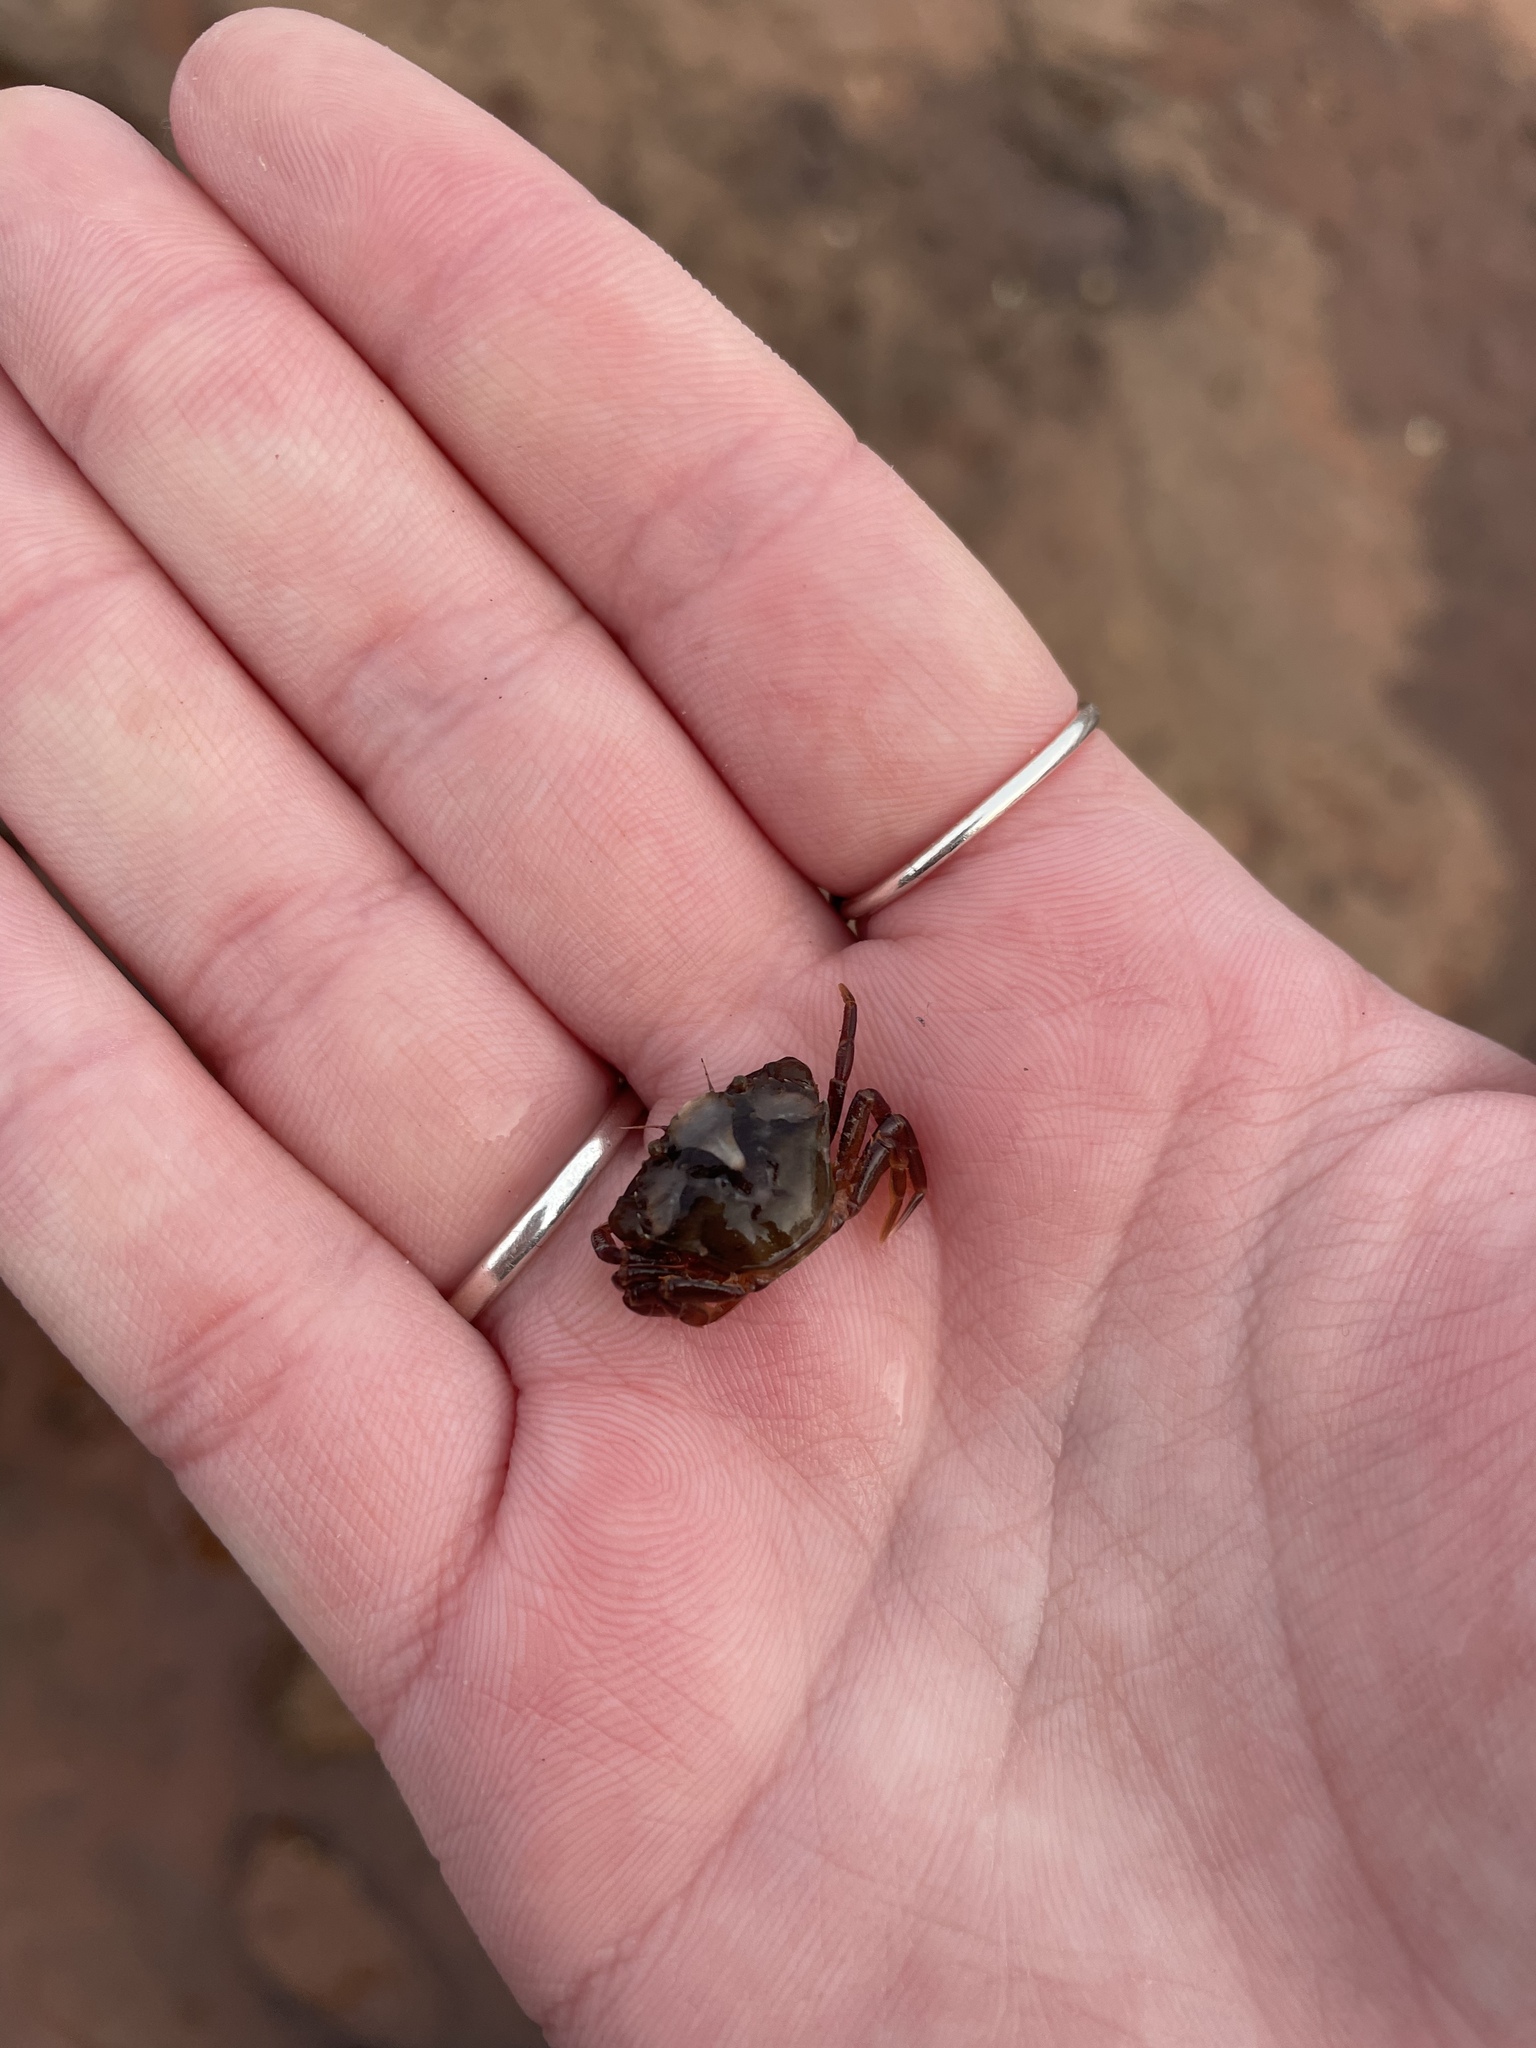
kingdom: Animalia
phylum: Arthropoda
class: Malacostraca
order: Decapoda
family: Carcinidae
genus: Carcinus
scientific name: Carcinus maenas
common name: European green crab
